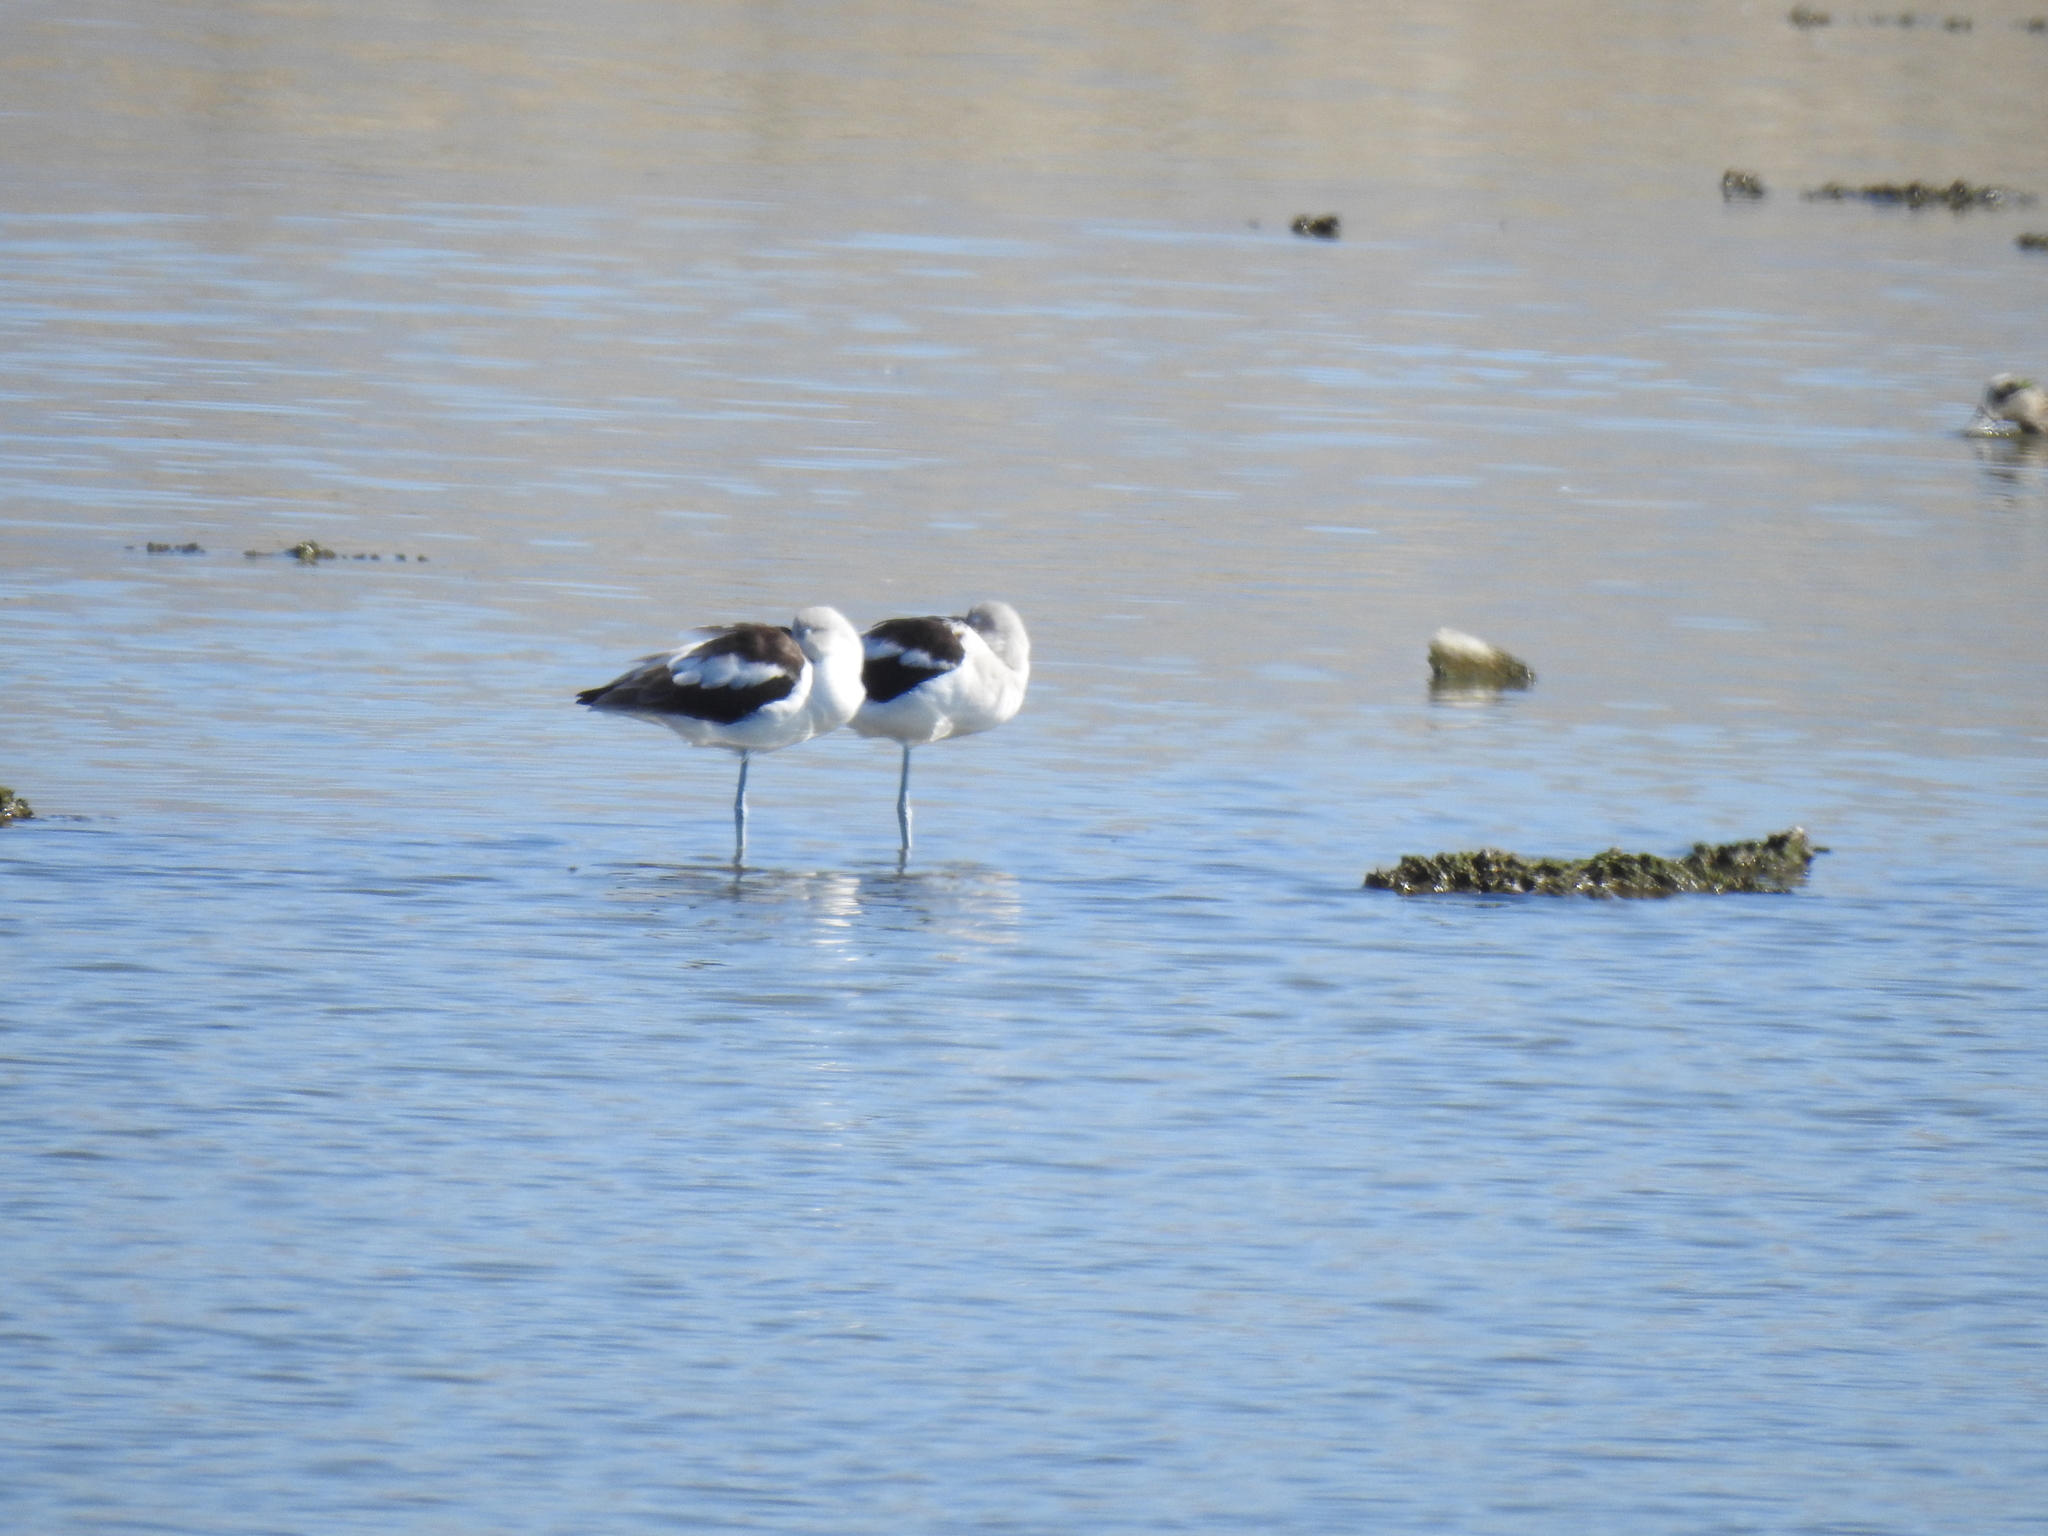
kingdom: Animalia
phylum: Chordata
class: Aves
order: Charadriiformes
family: Recurvirostridae
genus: Recurvirostra
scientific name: Recurvirostra americana
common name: American avocet
